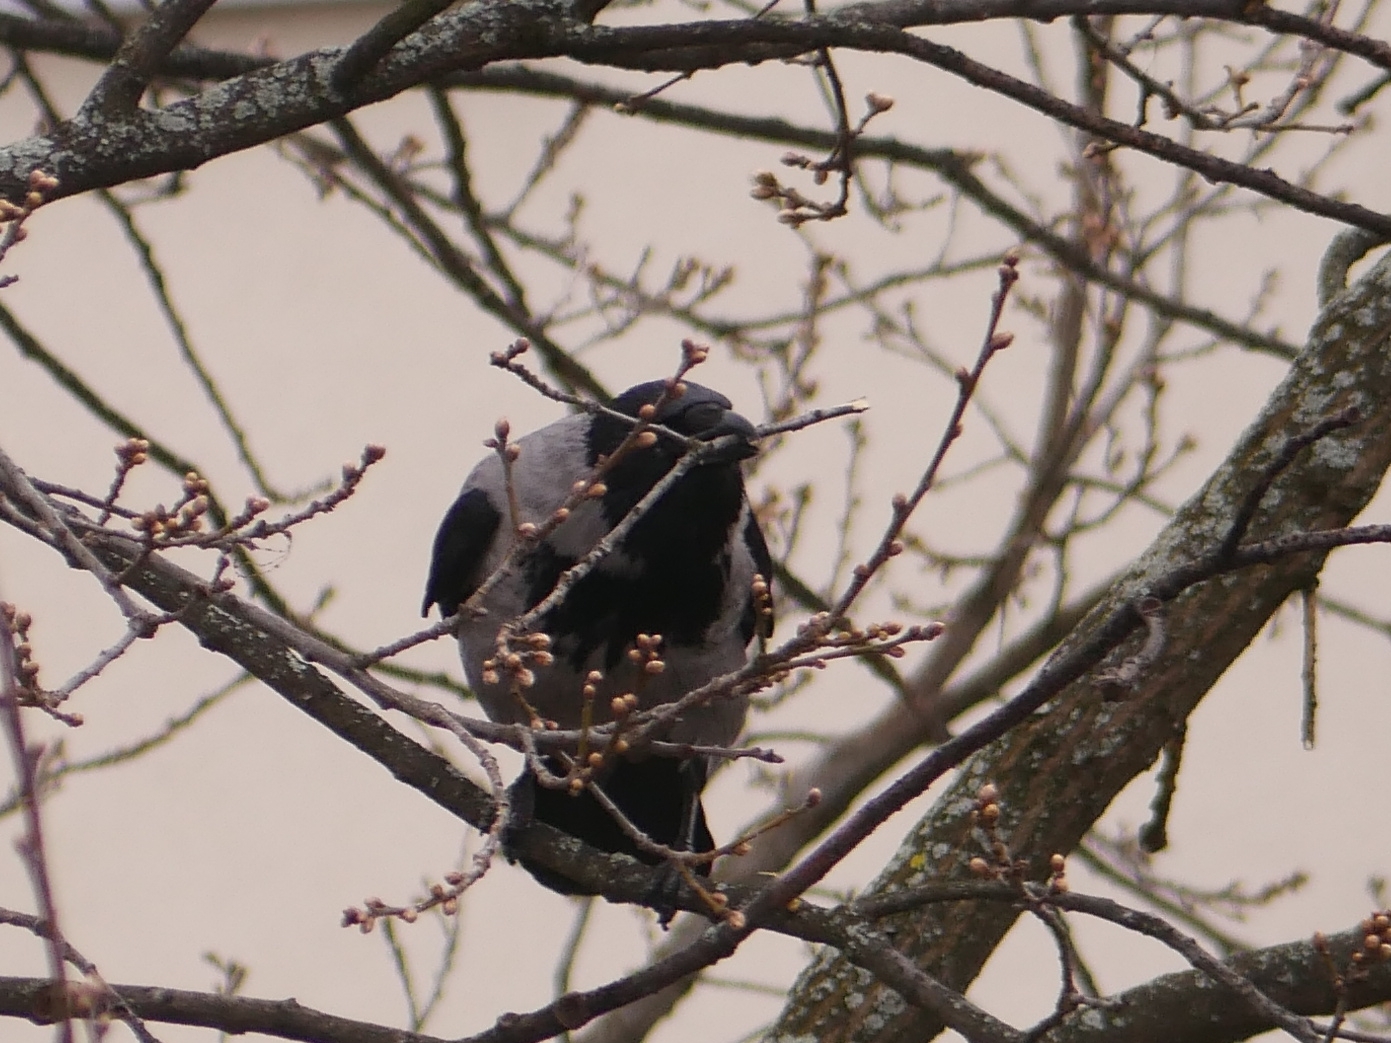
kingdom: Animalia
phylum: Chordata
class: Aves
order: Passeriformes
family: Corvidae
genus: Corvus
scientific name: Corvus cornix
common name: Hooded crow
